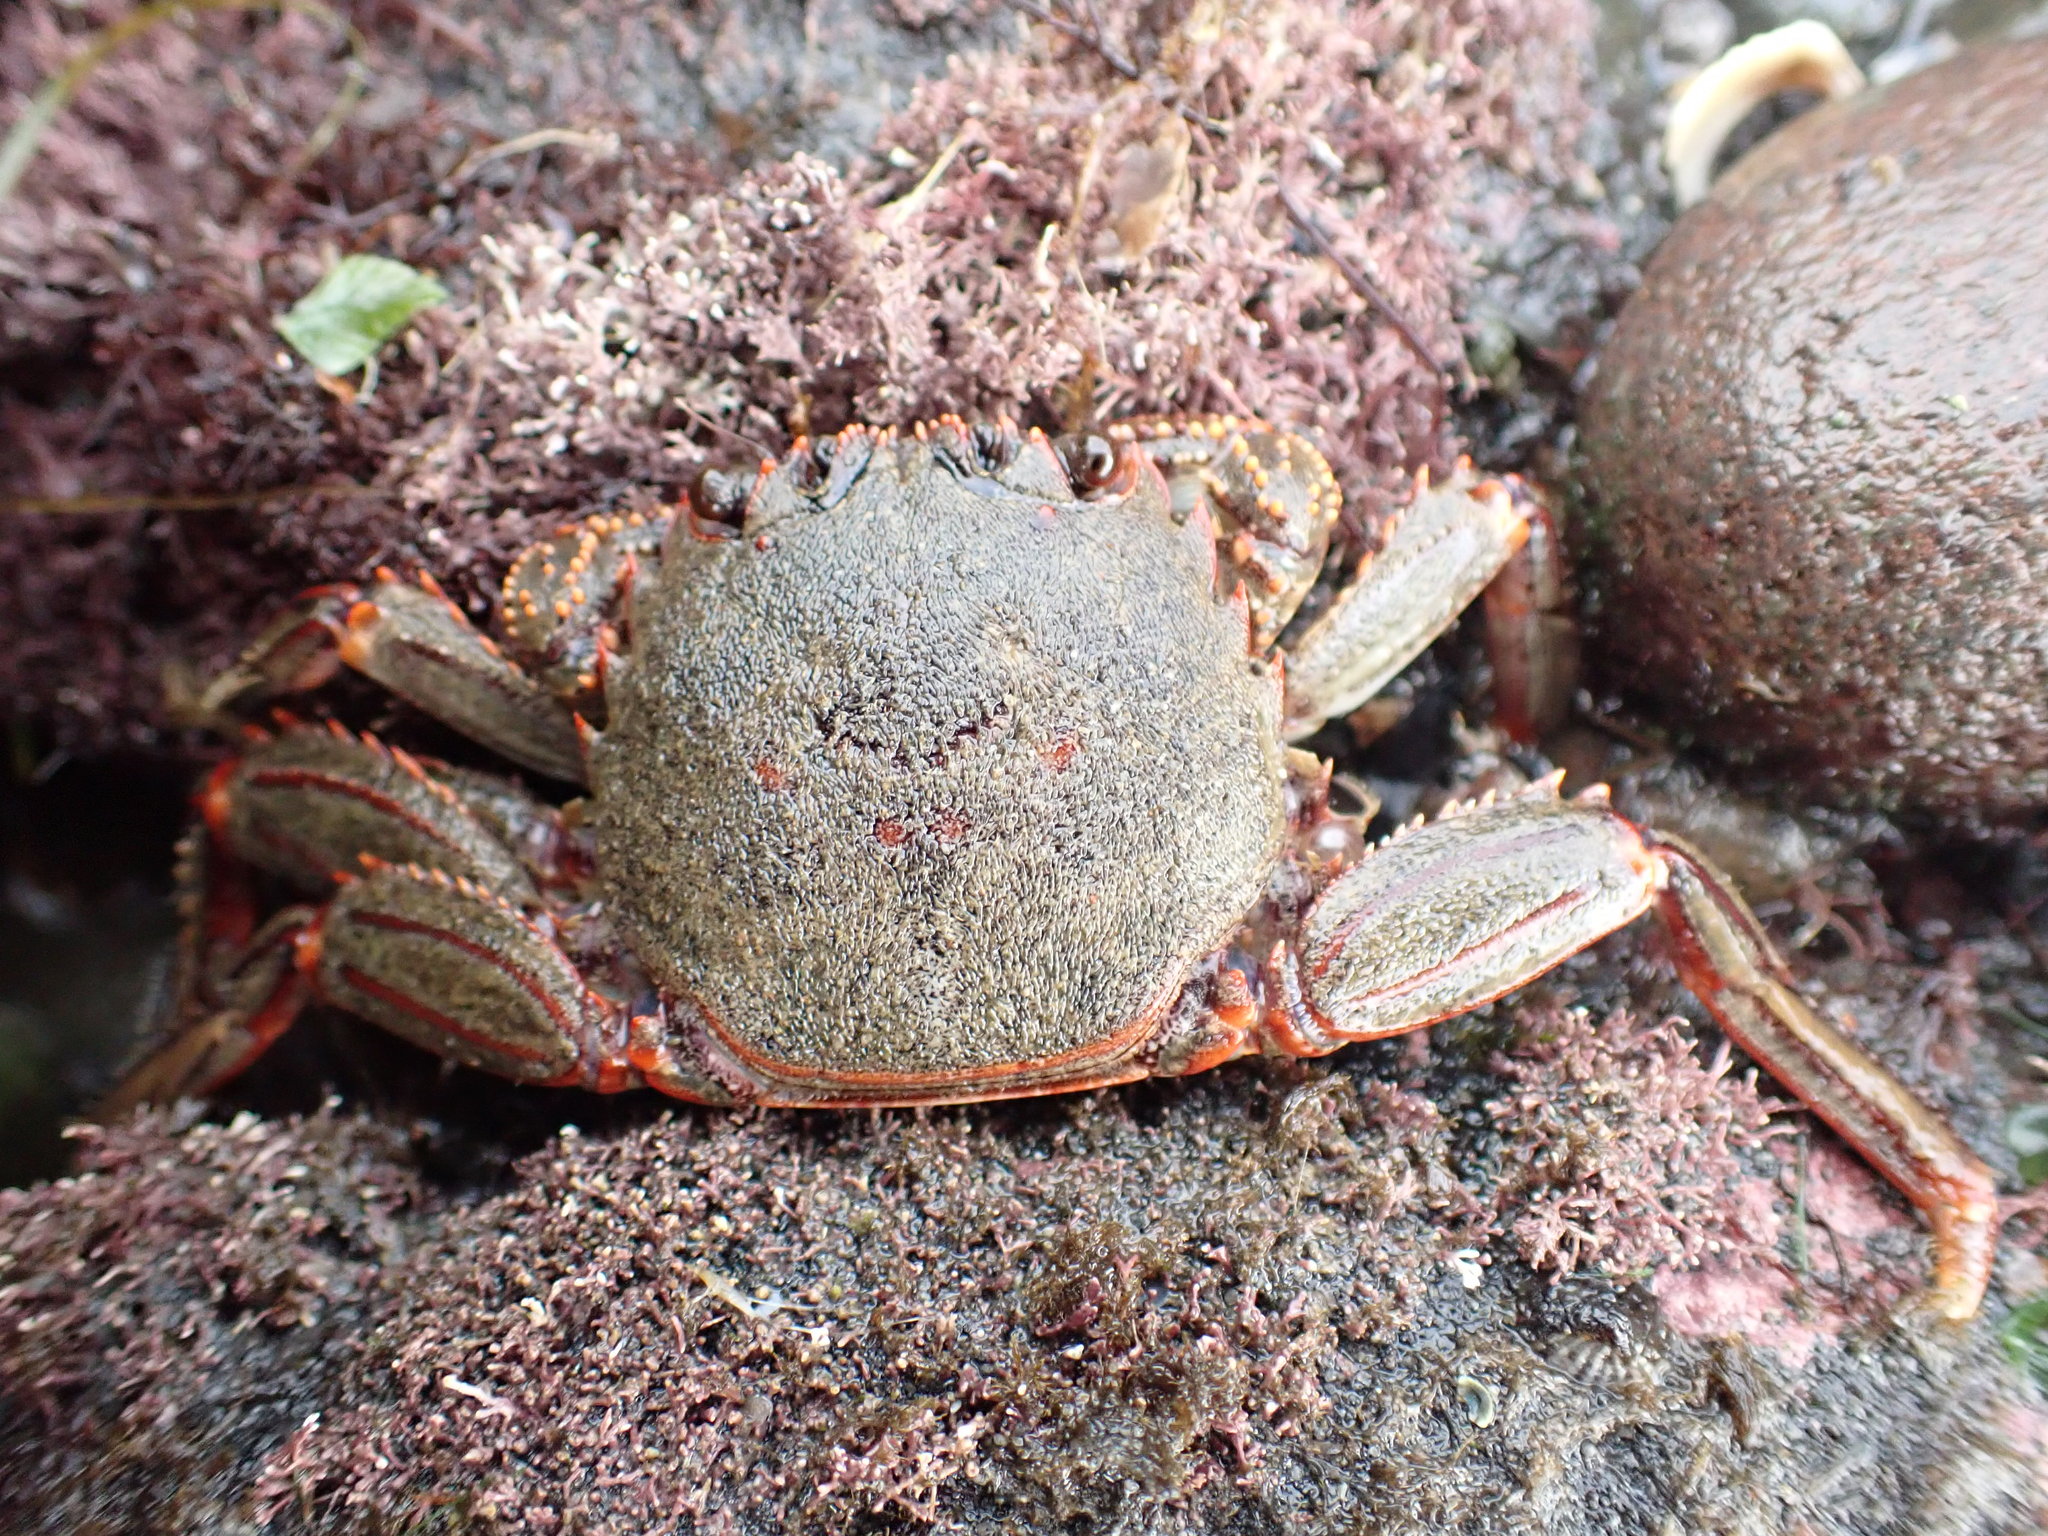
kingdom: Animalia
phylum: Arthropoda
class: Malacostraca
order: Decapoda
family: Plagusiidae
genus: Guinusia
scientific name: Guinusia chabrus
